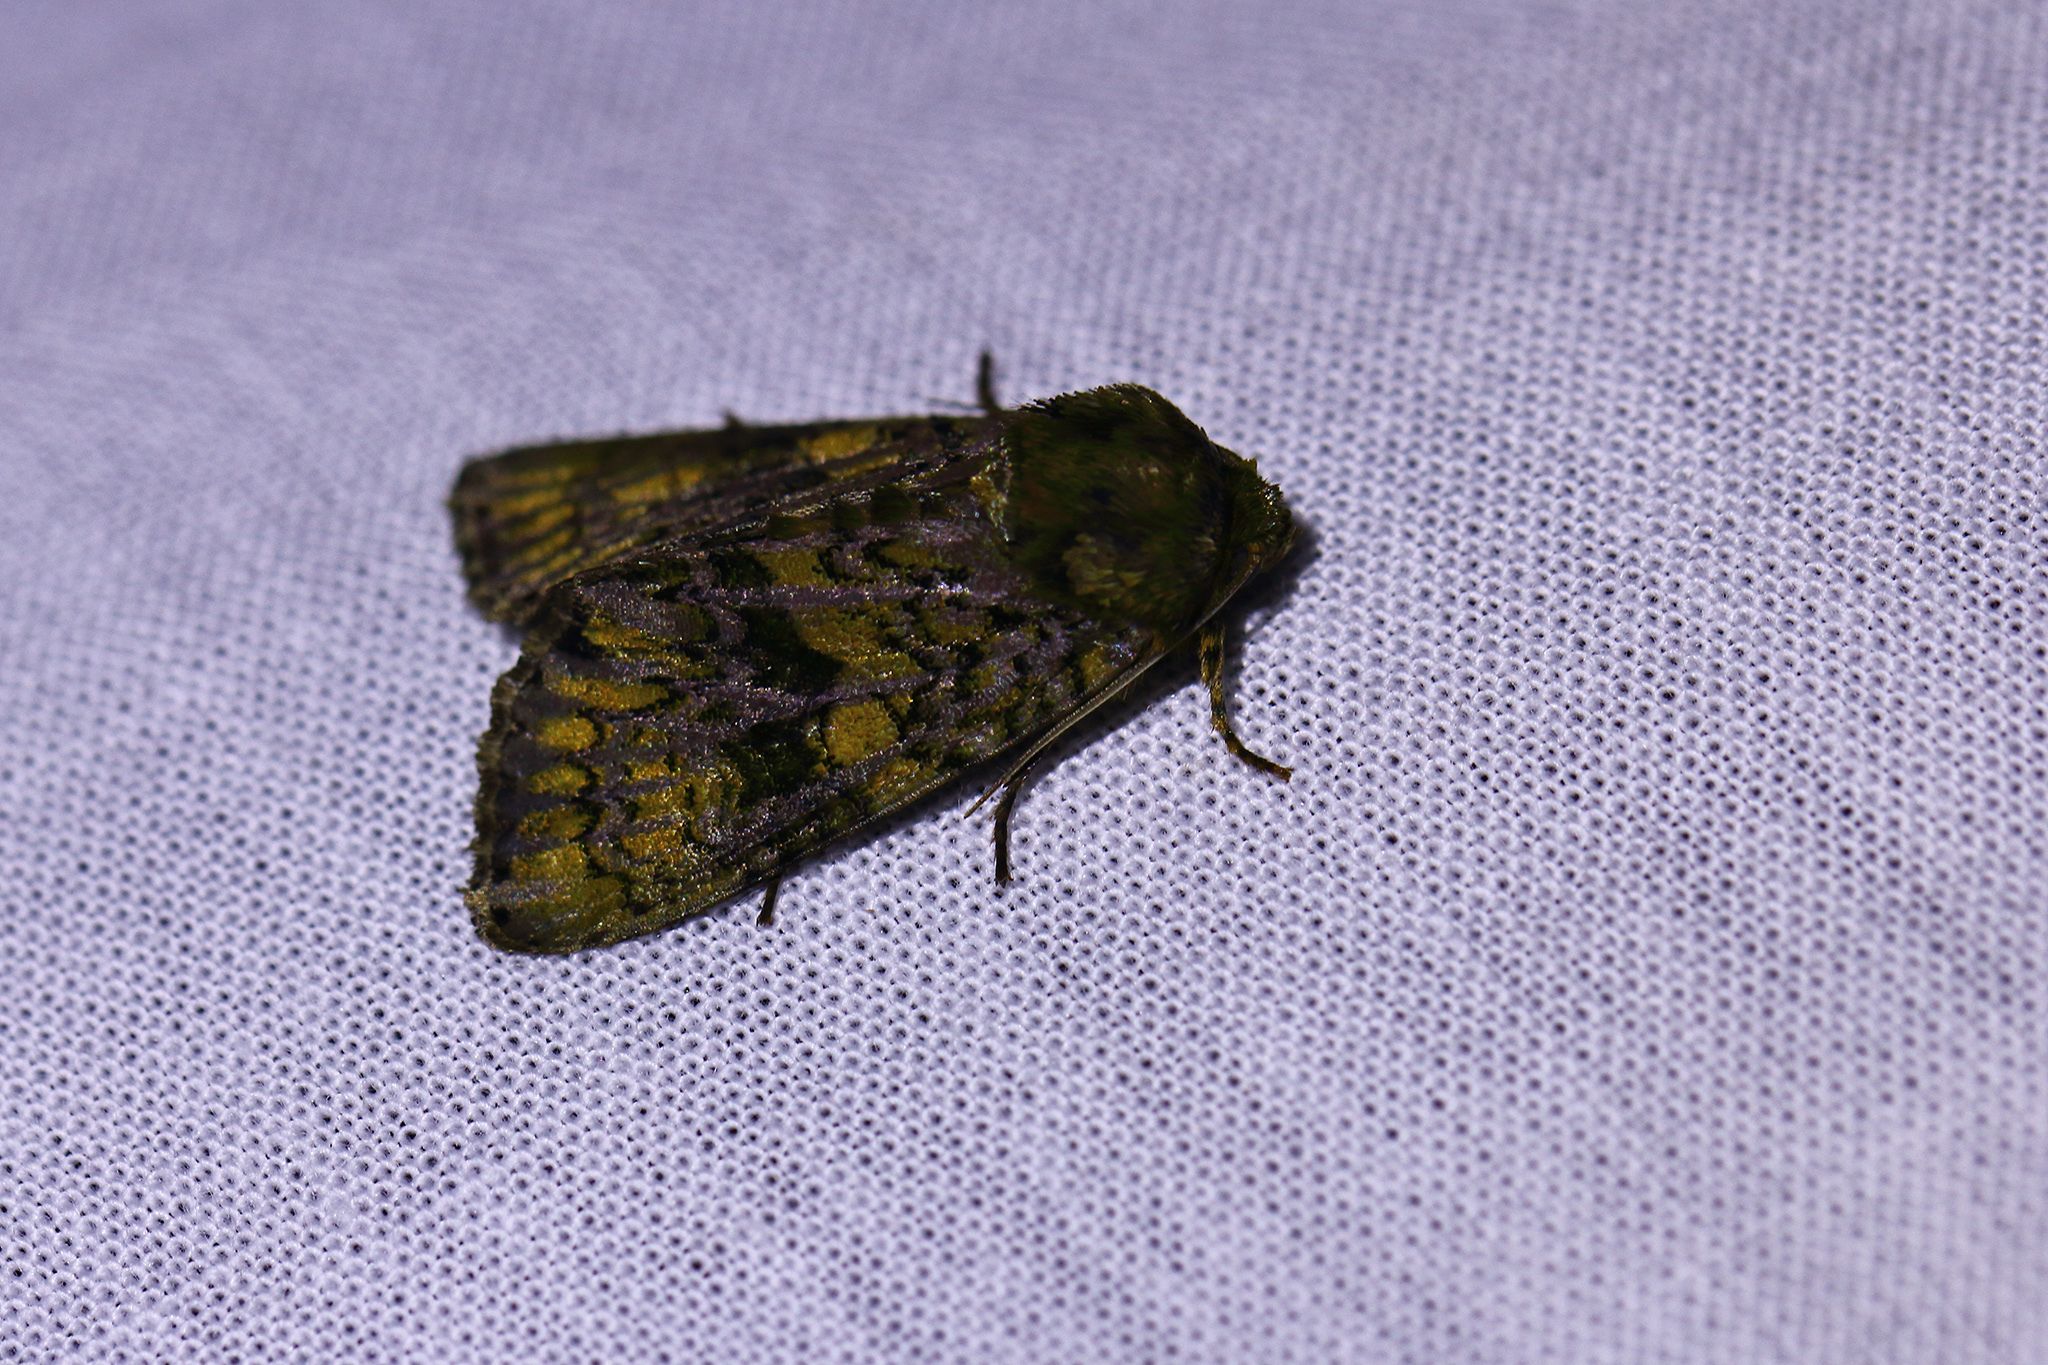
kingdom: Animalia
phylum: Arthropoda
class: Insecta
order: Lepidoptera
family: Noctuidae
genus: Craniophora
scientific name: Craniophora ligustri
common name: Coronet
